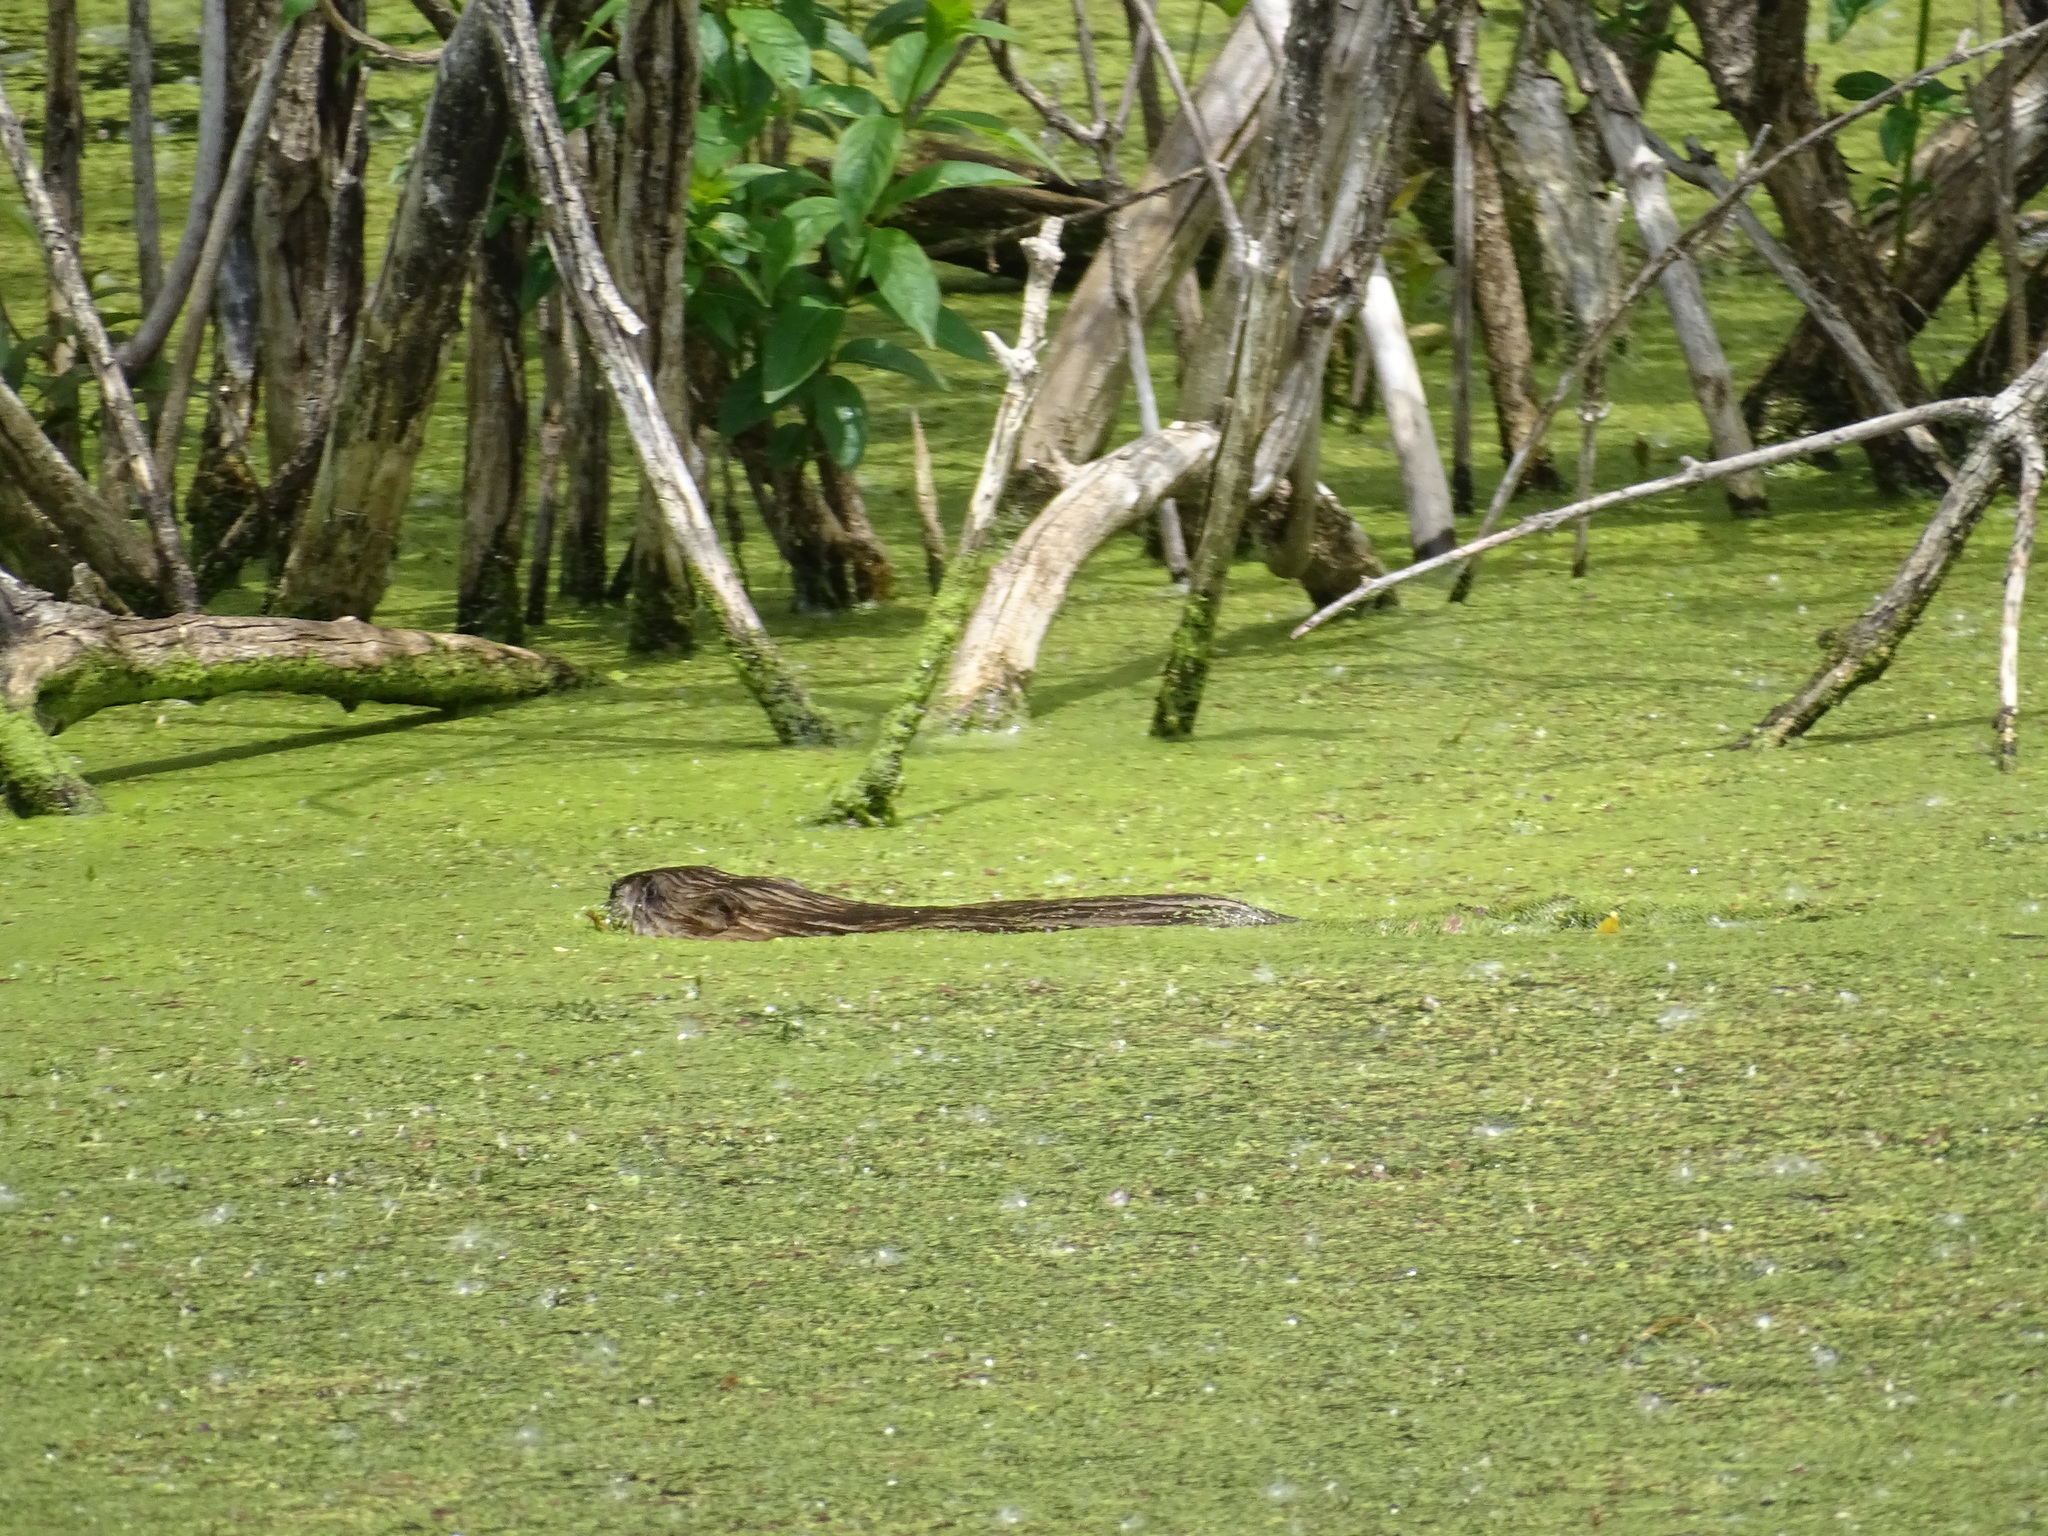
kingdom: Animalia
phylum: Chordata
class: Mammalia
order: Rodentia
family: Cricetidae
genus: Ondatra
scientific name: Ondatra zibethicus
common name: Muskrat
